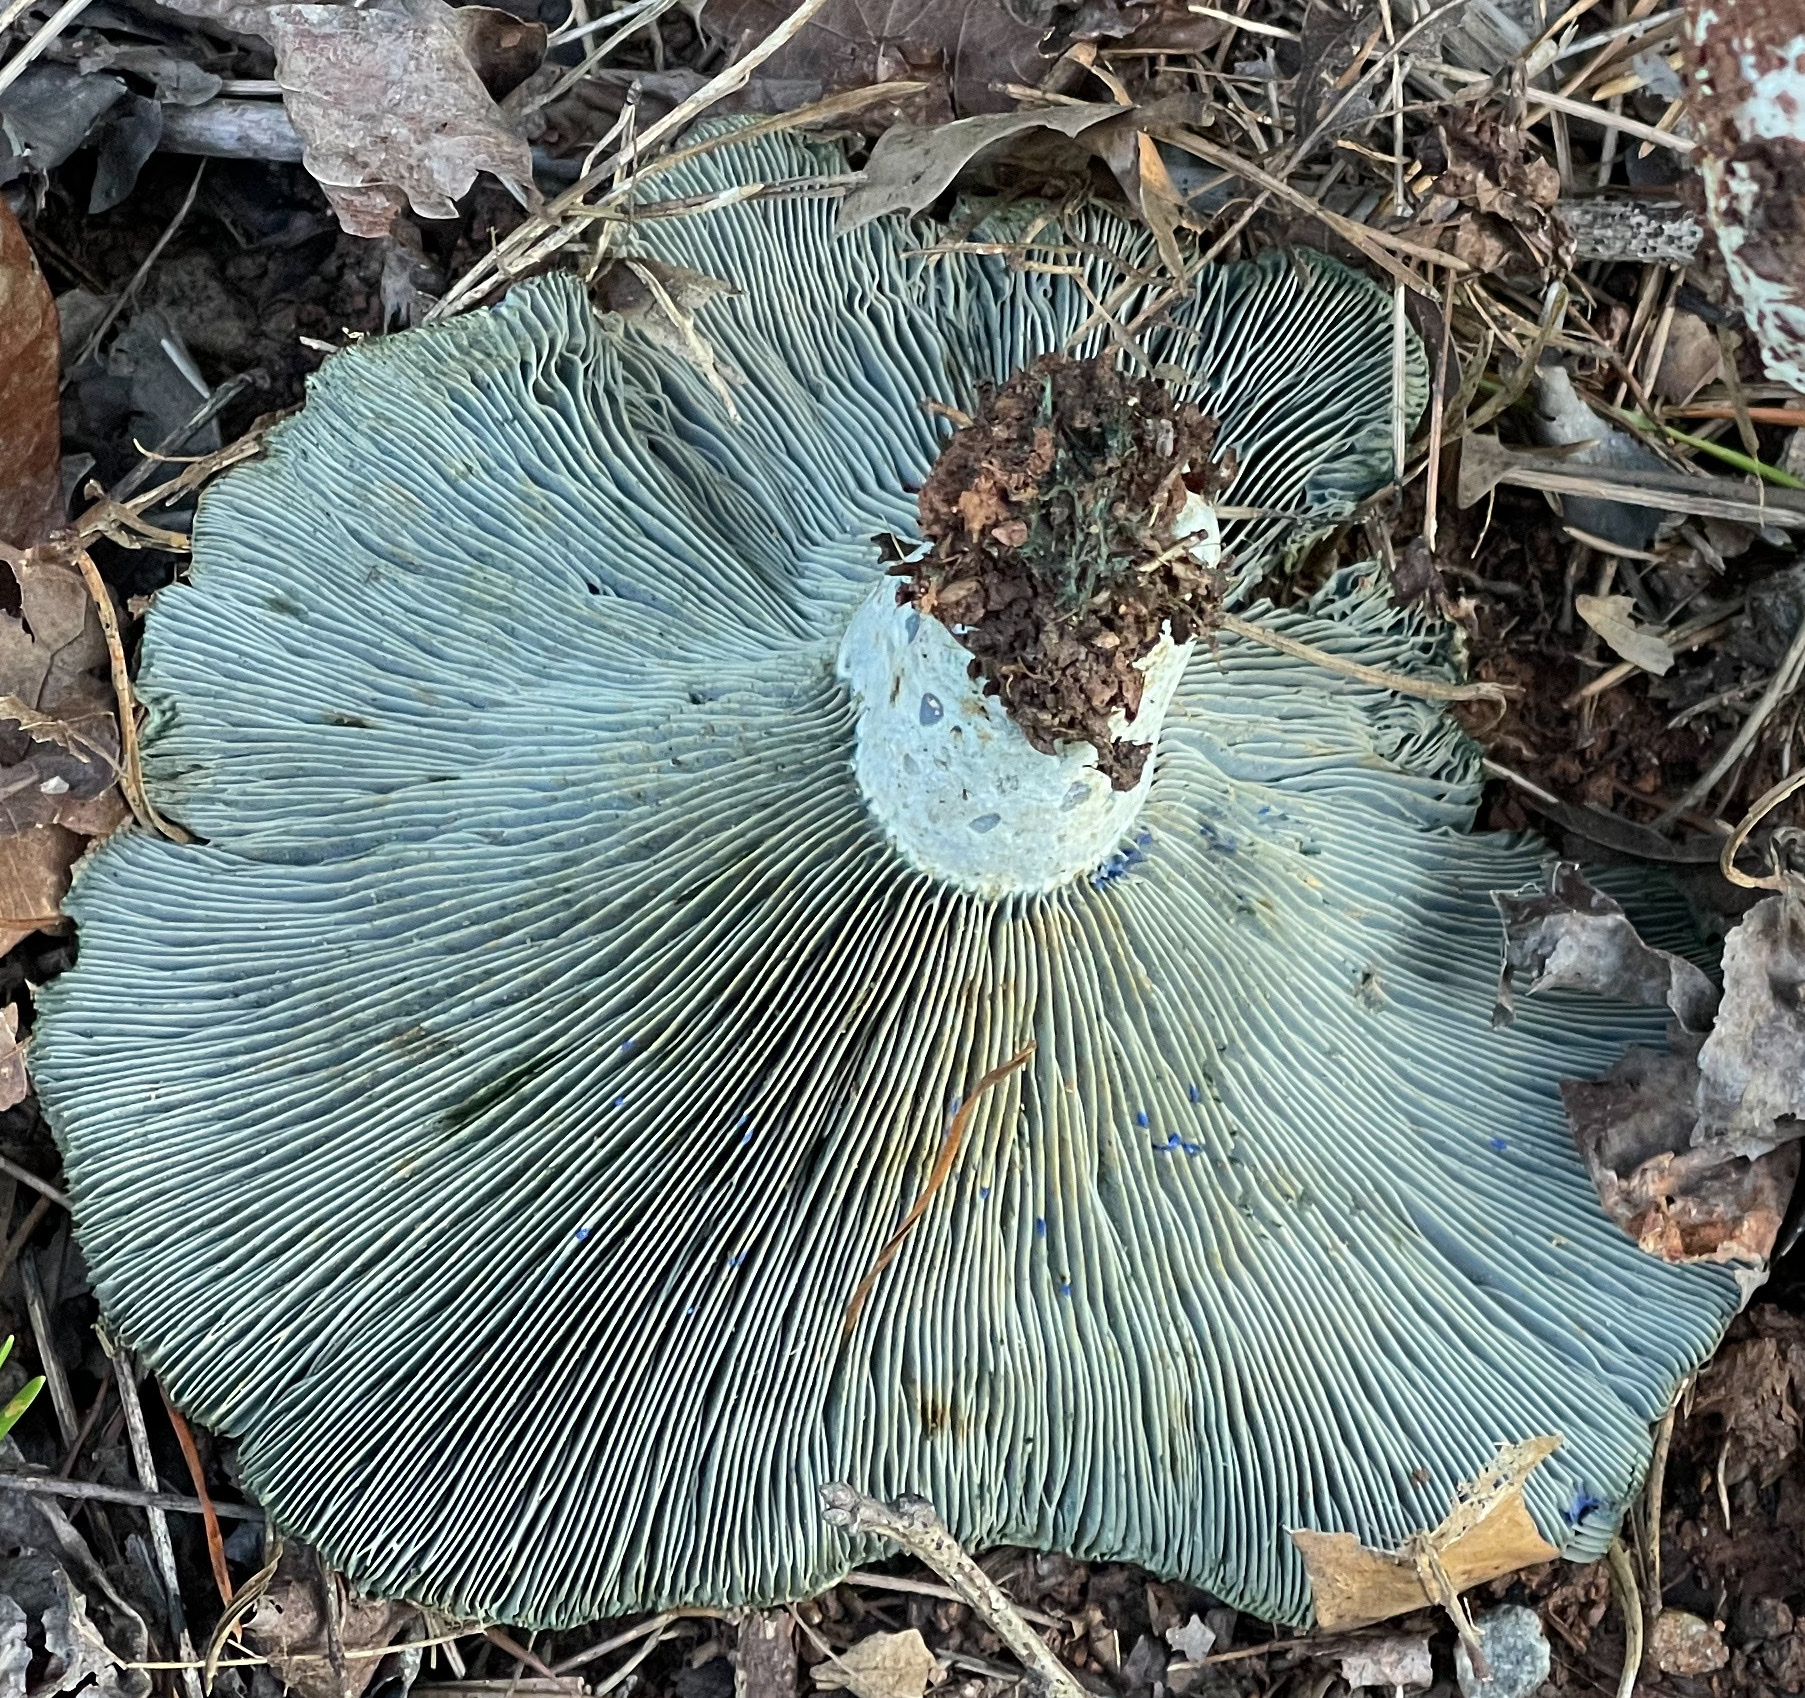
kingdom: Fungi
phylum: Basidiomycota
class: Agaricomycetes
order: Russulales
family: Russulaceae
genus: Lactarius
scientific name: Lactarius indigo
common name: Indigo milk cap
